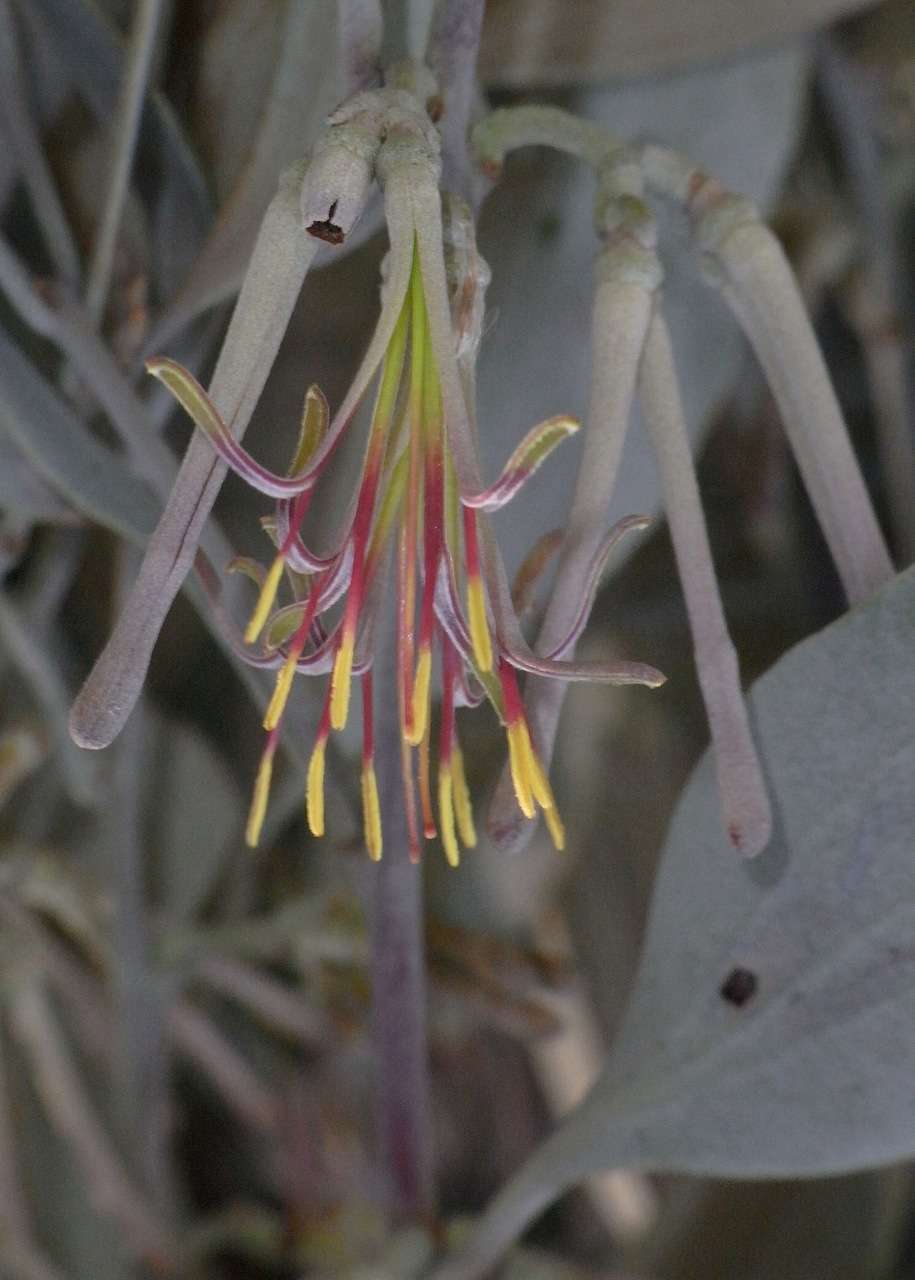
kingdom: Plantae
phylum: Tracheophyta
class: Magnoliopsida
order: Santalales
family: Loranthaceae
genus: Amyema
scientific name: Amyema quandang
